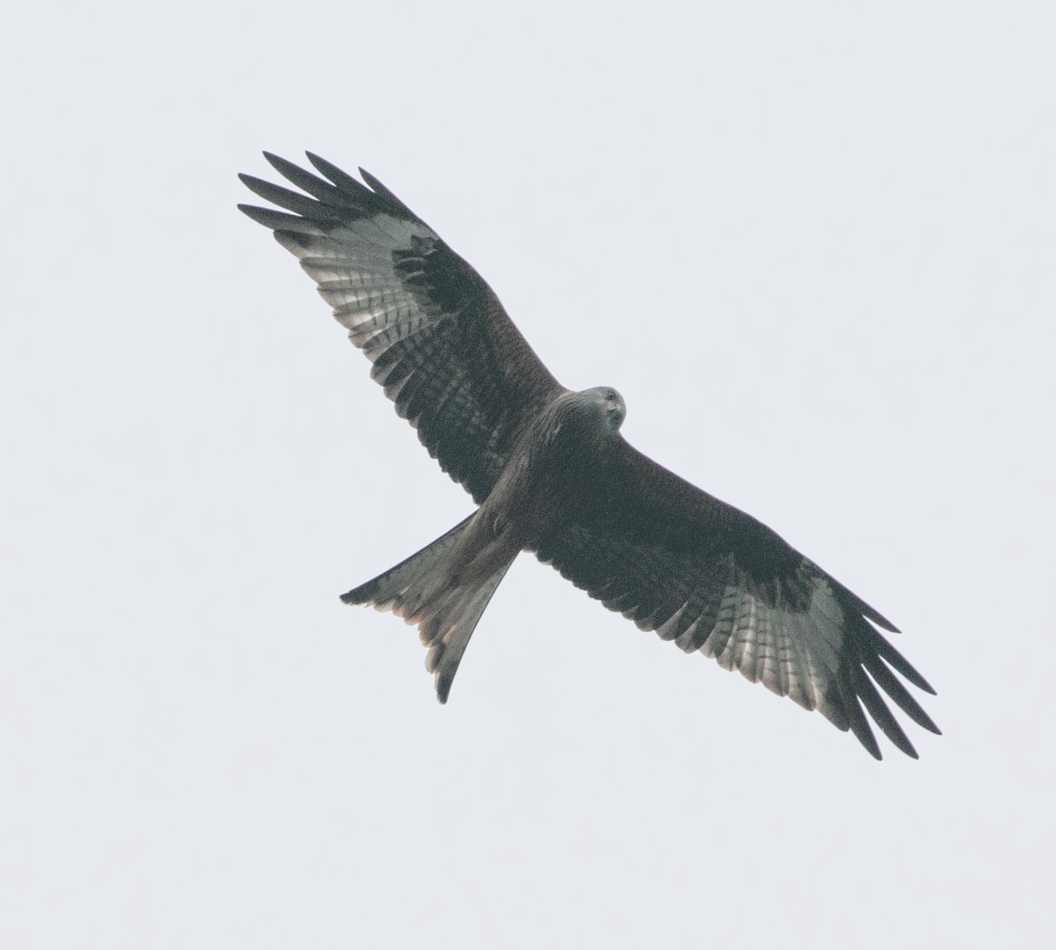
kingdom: Animalia
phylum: Chordata
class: Aves
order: Accipitriformes
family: Accipitridae
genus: Milvus
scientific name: Milvus milvus
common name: Red kite
